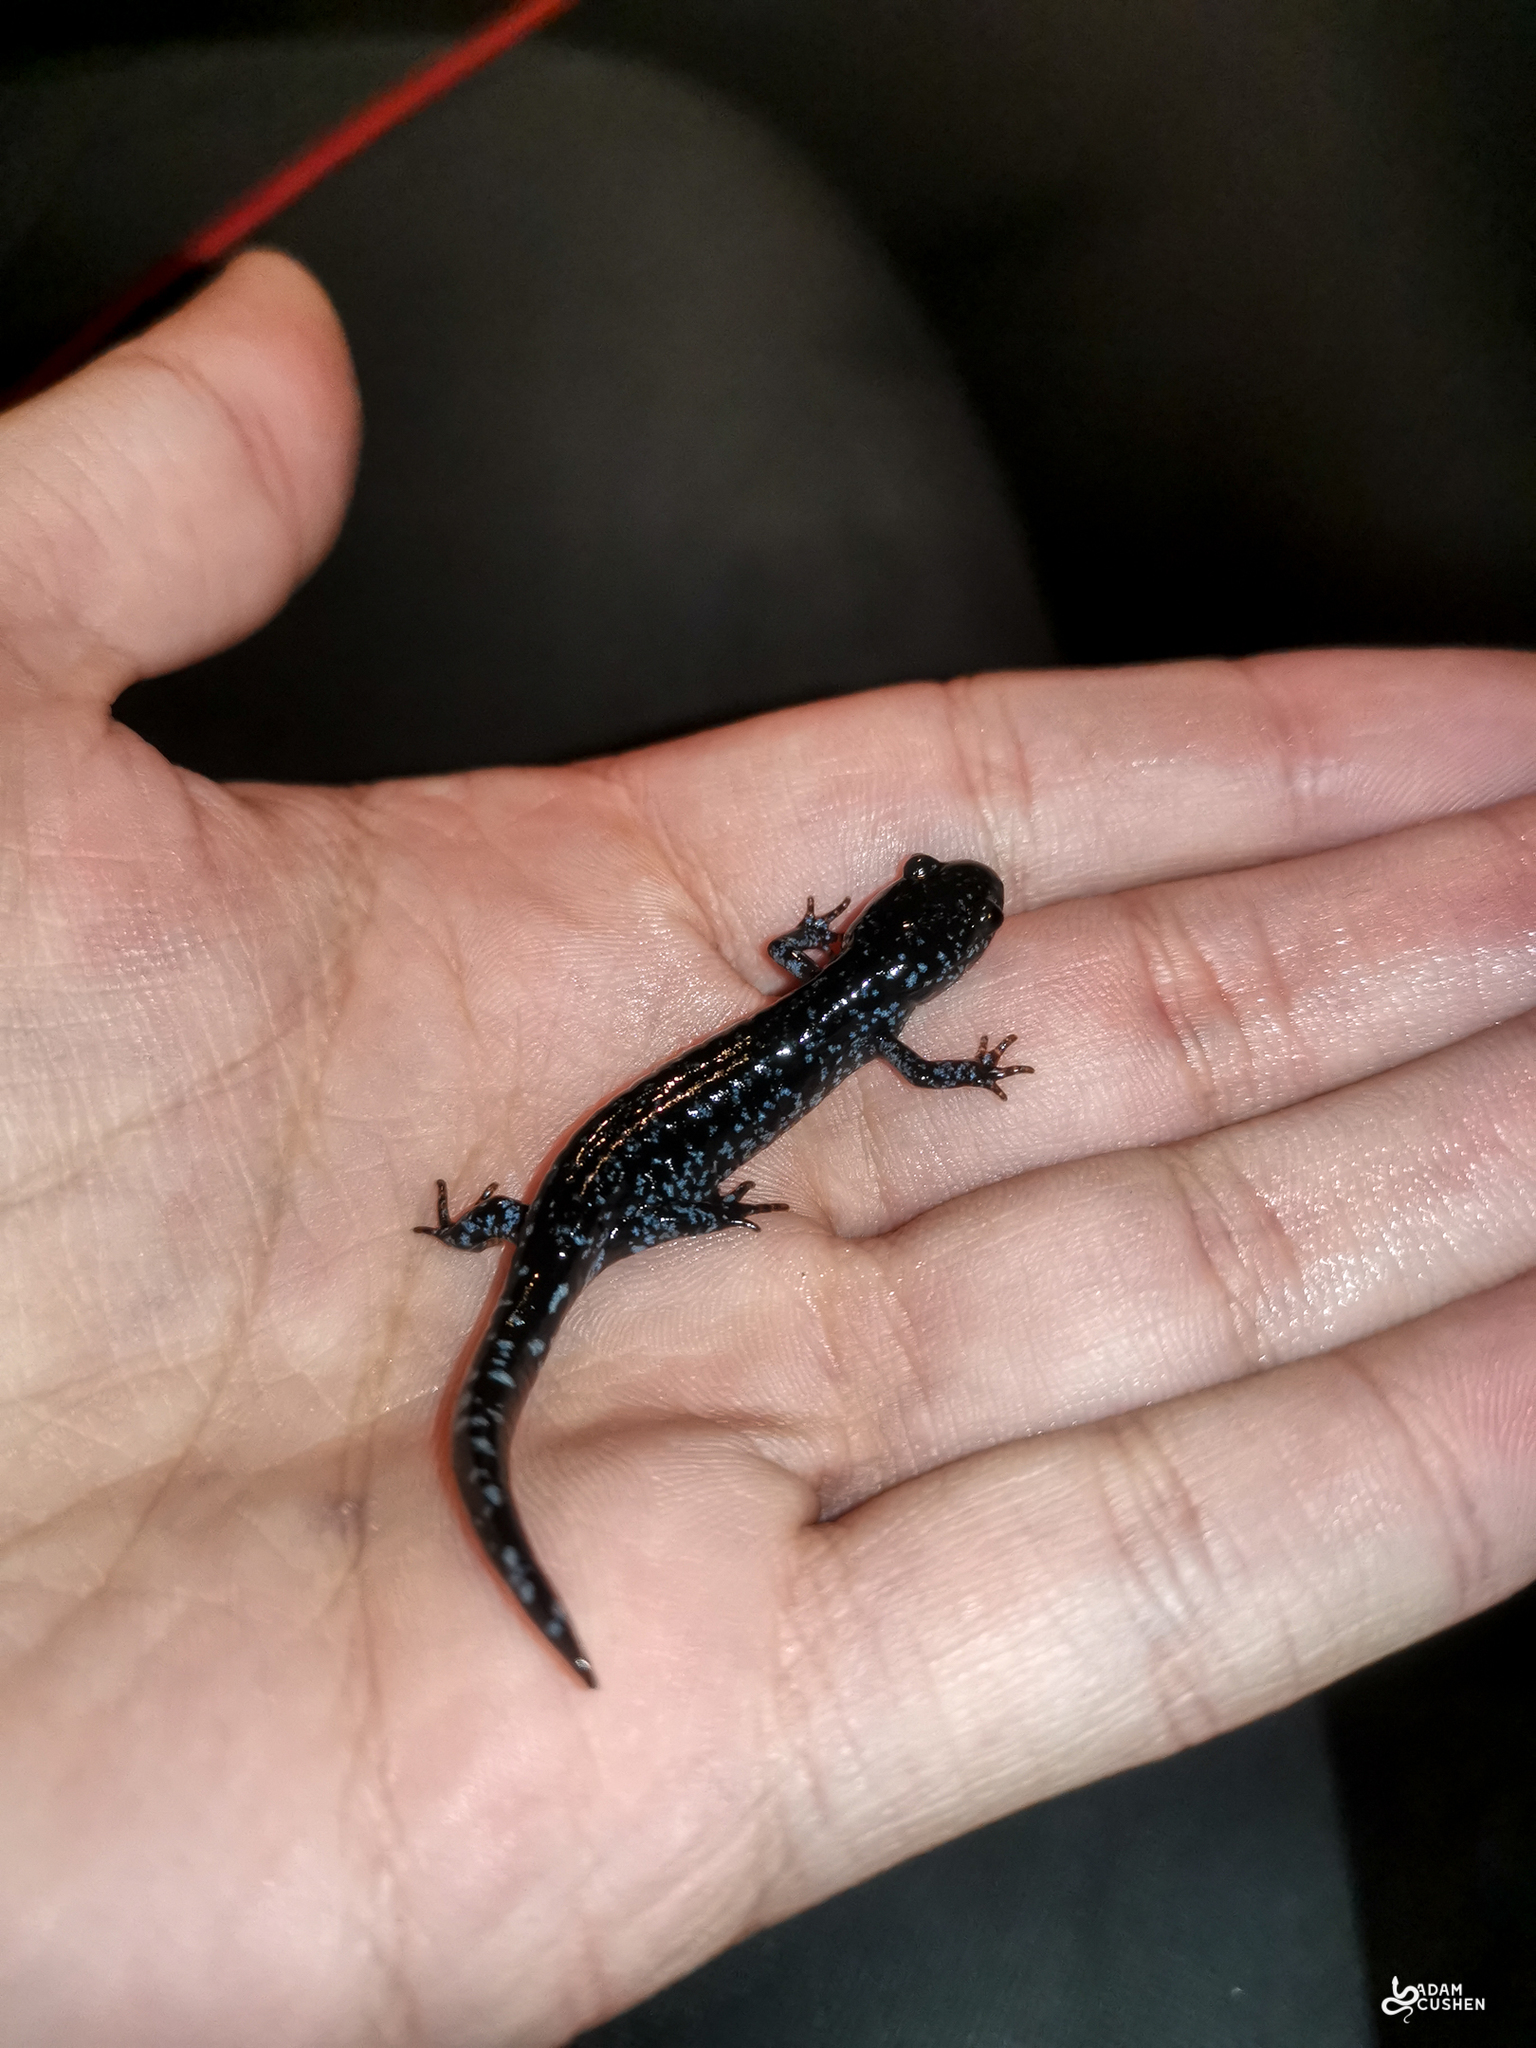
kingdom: Animalia
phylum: Chordata
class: Amphibia
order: Caudata
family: Ambystomatidae
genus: Ambystoma
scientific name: Ambystoma laterale
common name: Blue-spotted salamander
